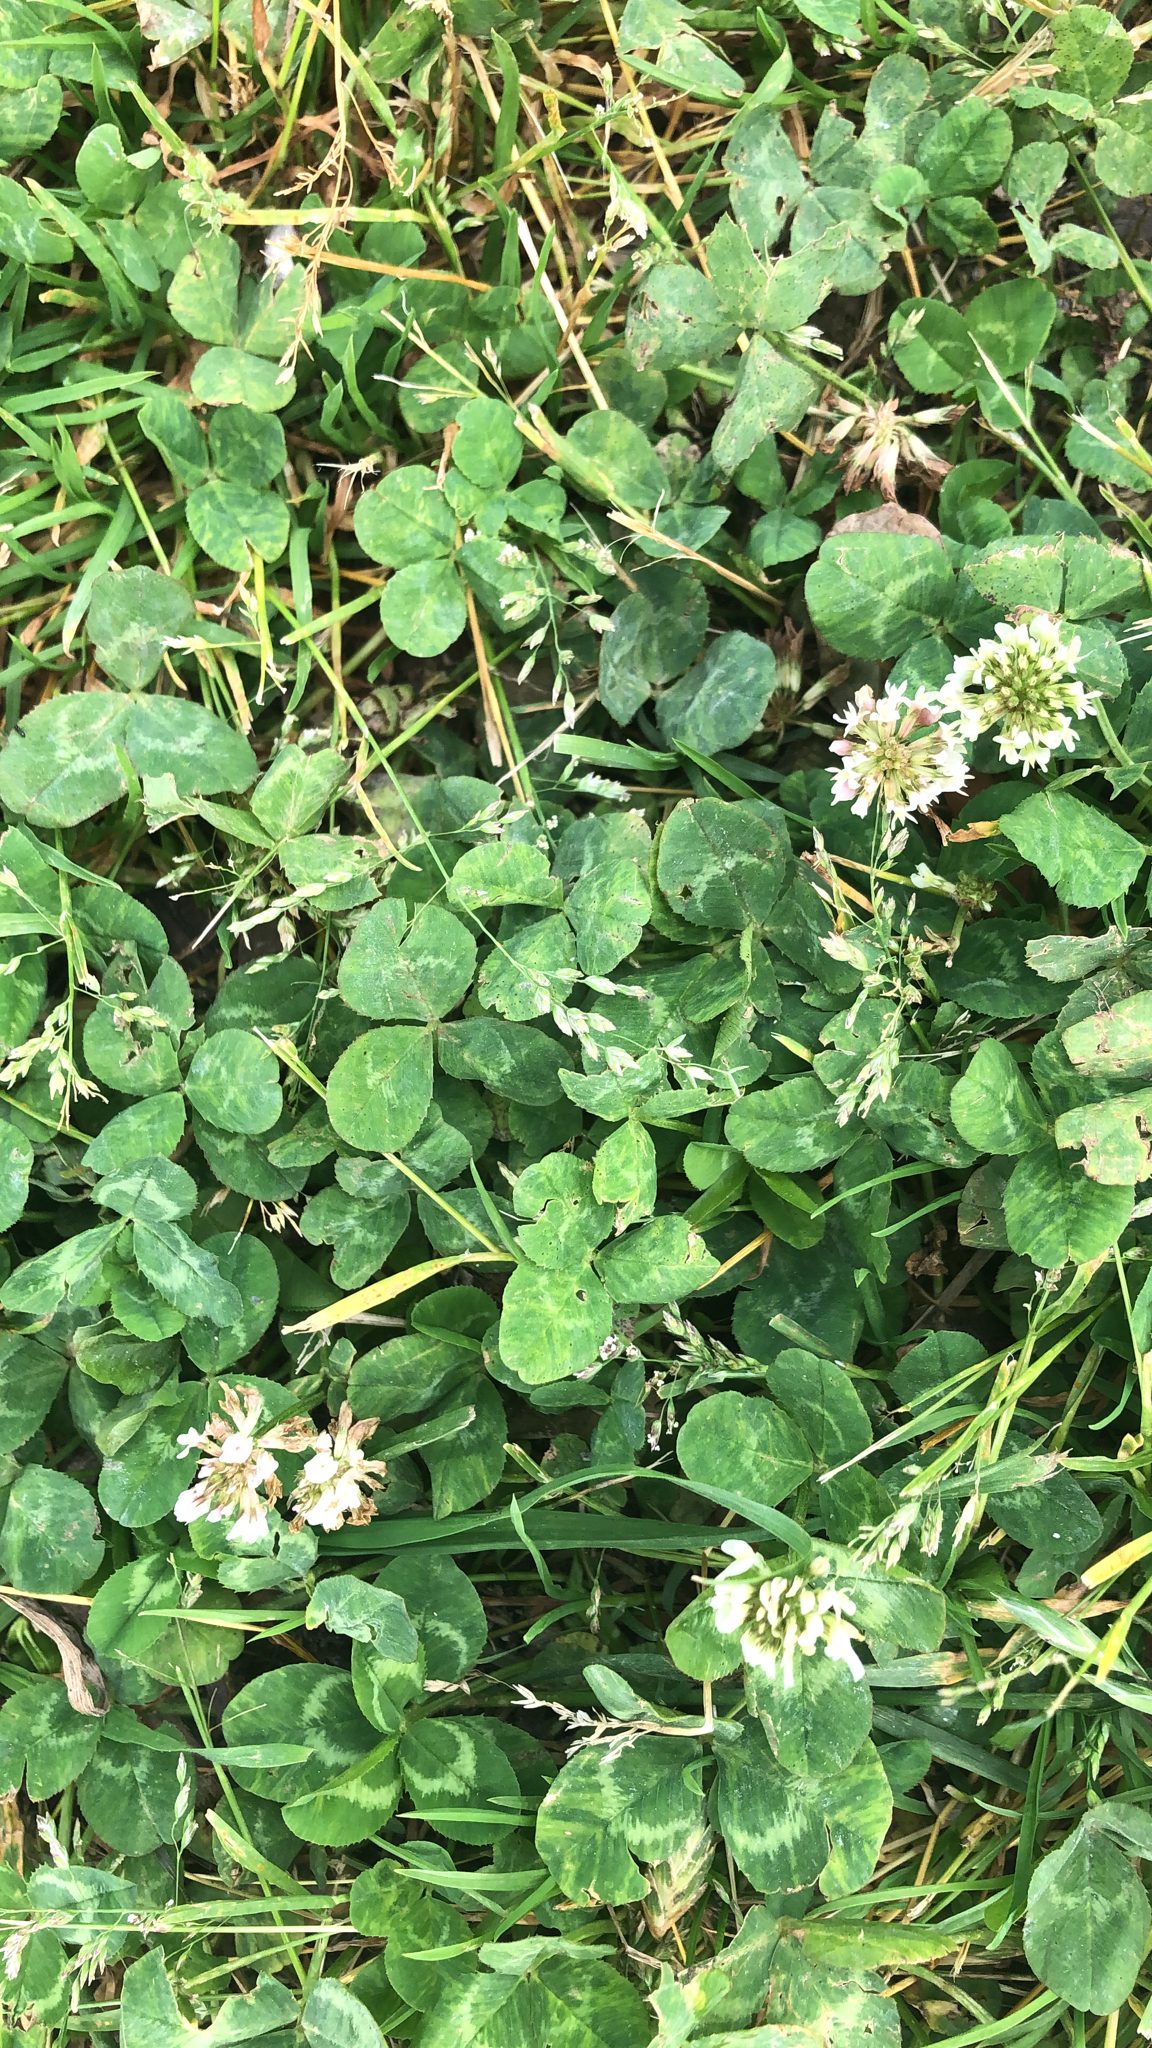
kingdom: Plantae
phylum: Tracheophyta
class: Magnoliopsida
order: Fabales
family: Fabaceae
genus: Trifolium
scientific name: Trifolium repens
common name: White clover
